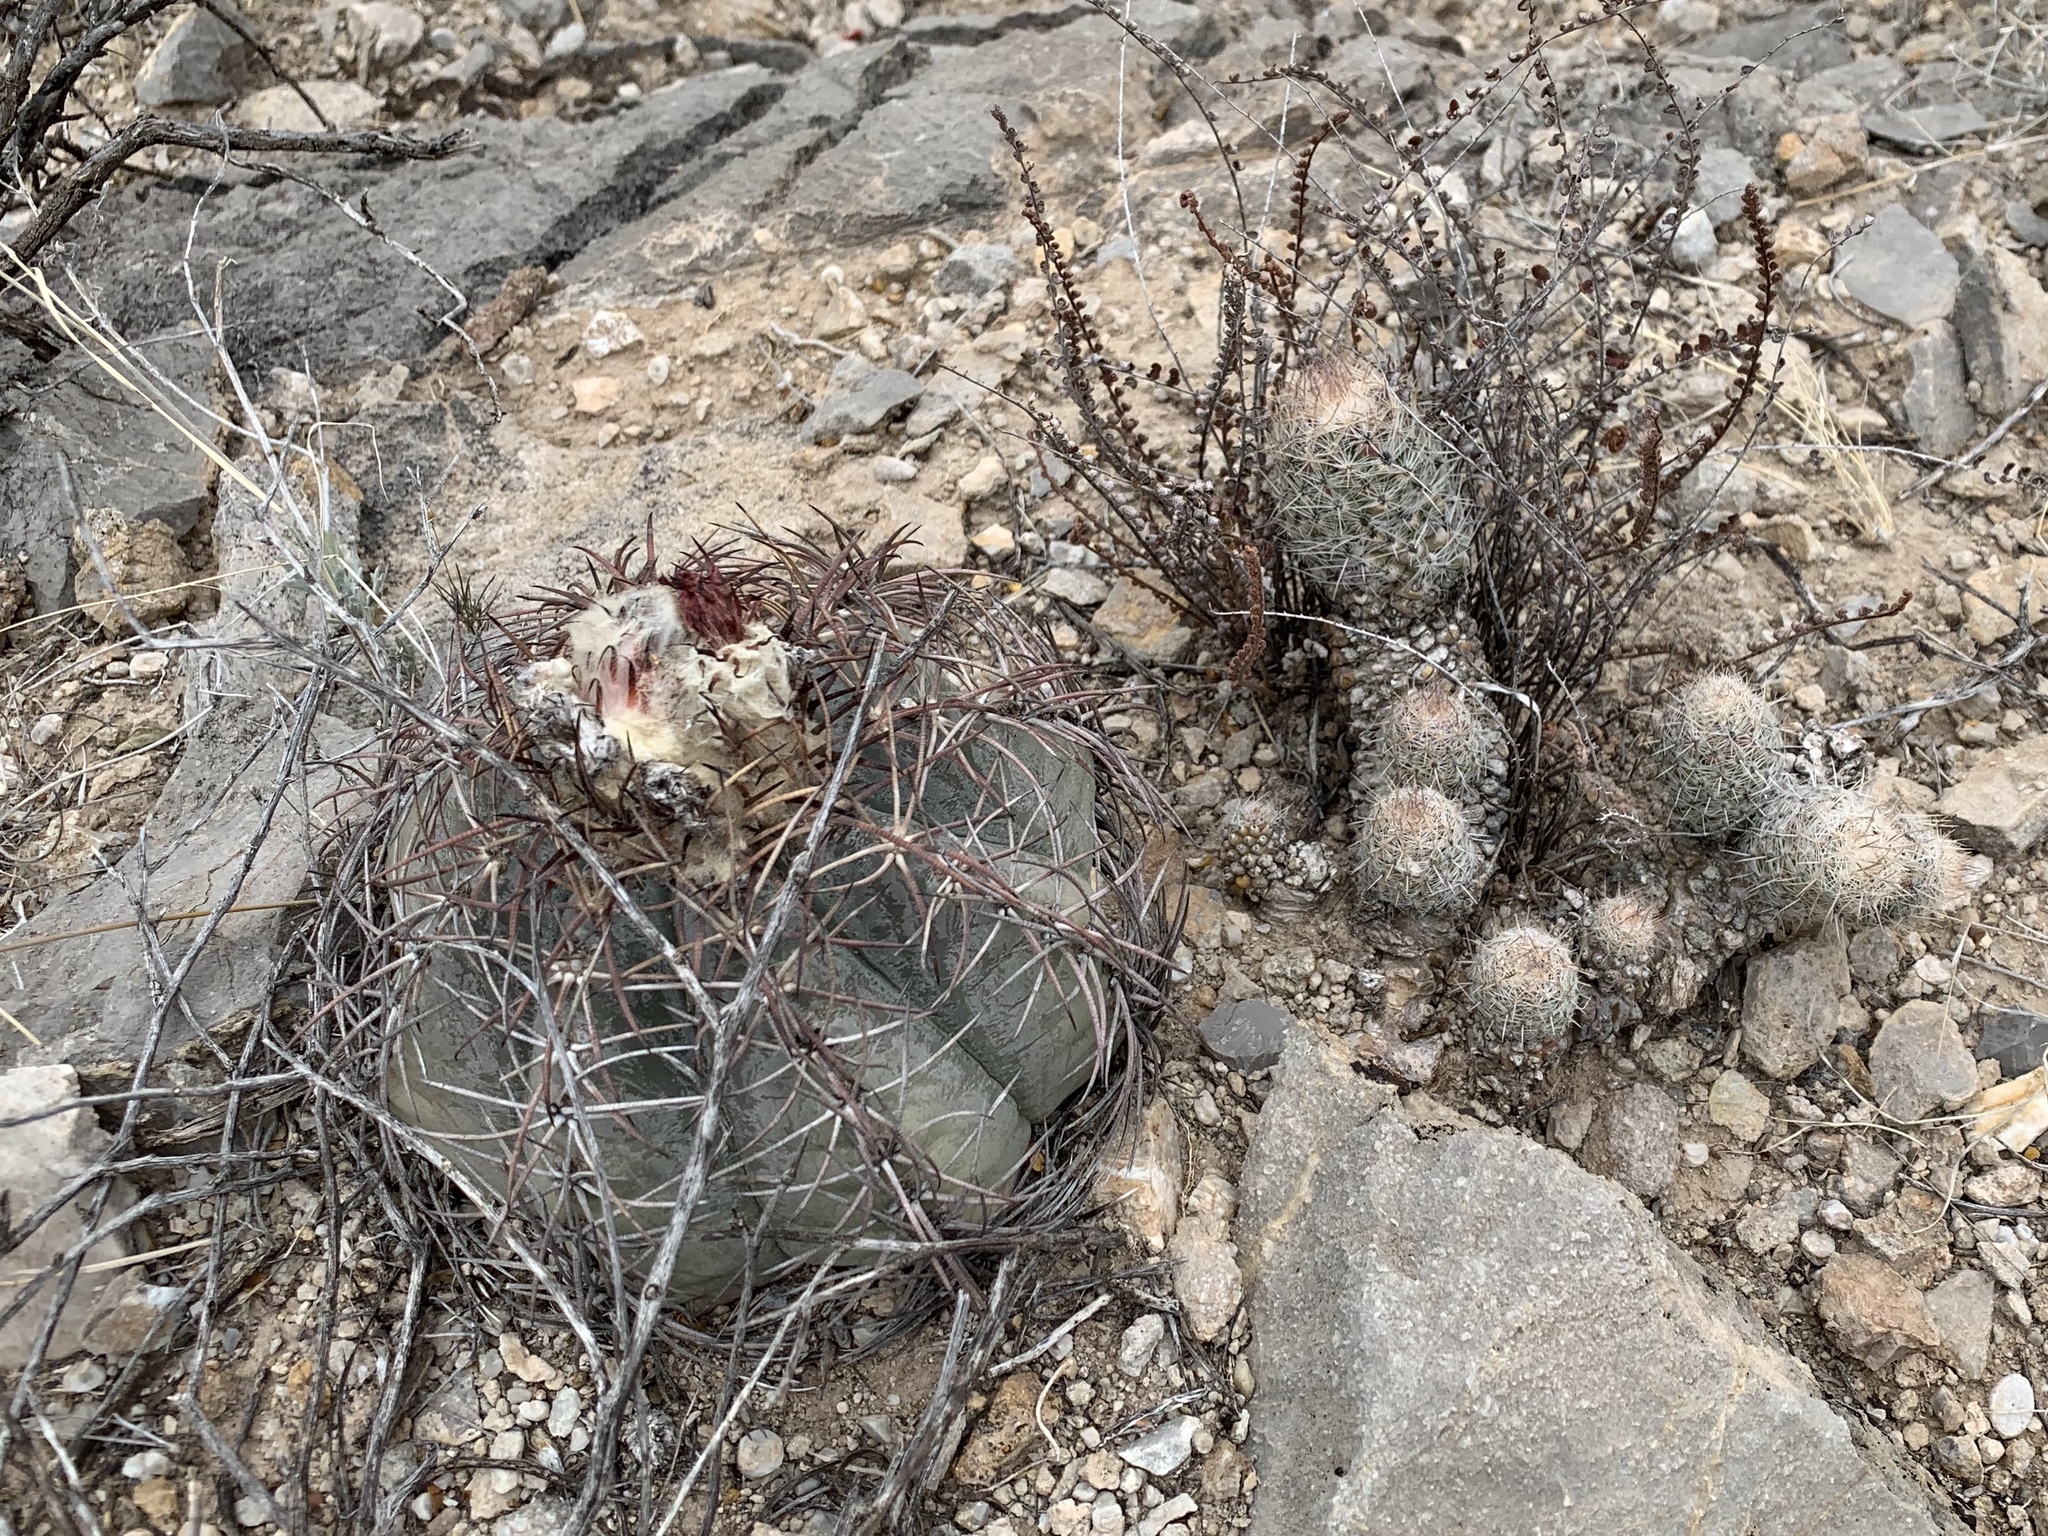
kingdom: Plantae
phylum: Tracheophyta
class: Magnoliopsida
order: Caryophyllales
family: Cactaceae
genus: Pelecyphora
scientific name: Pelecyphora tuberculosa
